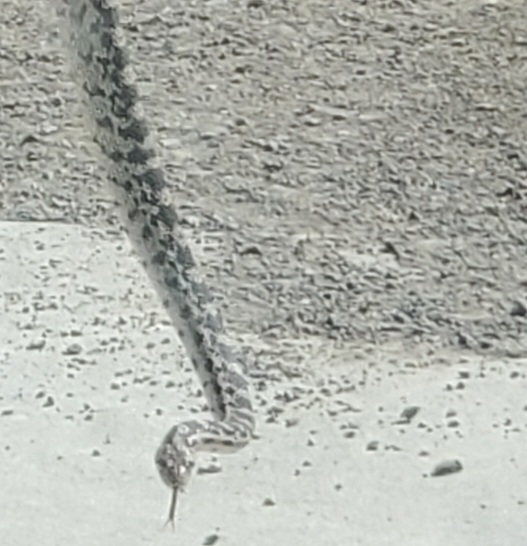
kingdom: Animalia
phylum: Chordata
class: Squamata
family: Colubridae
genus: Pituophis
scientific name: Pituophis catenifer
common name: Gopher snake
